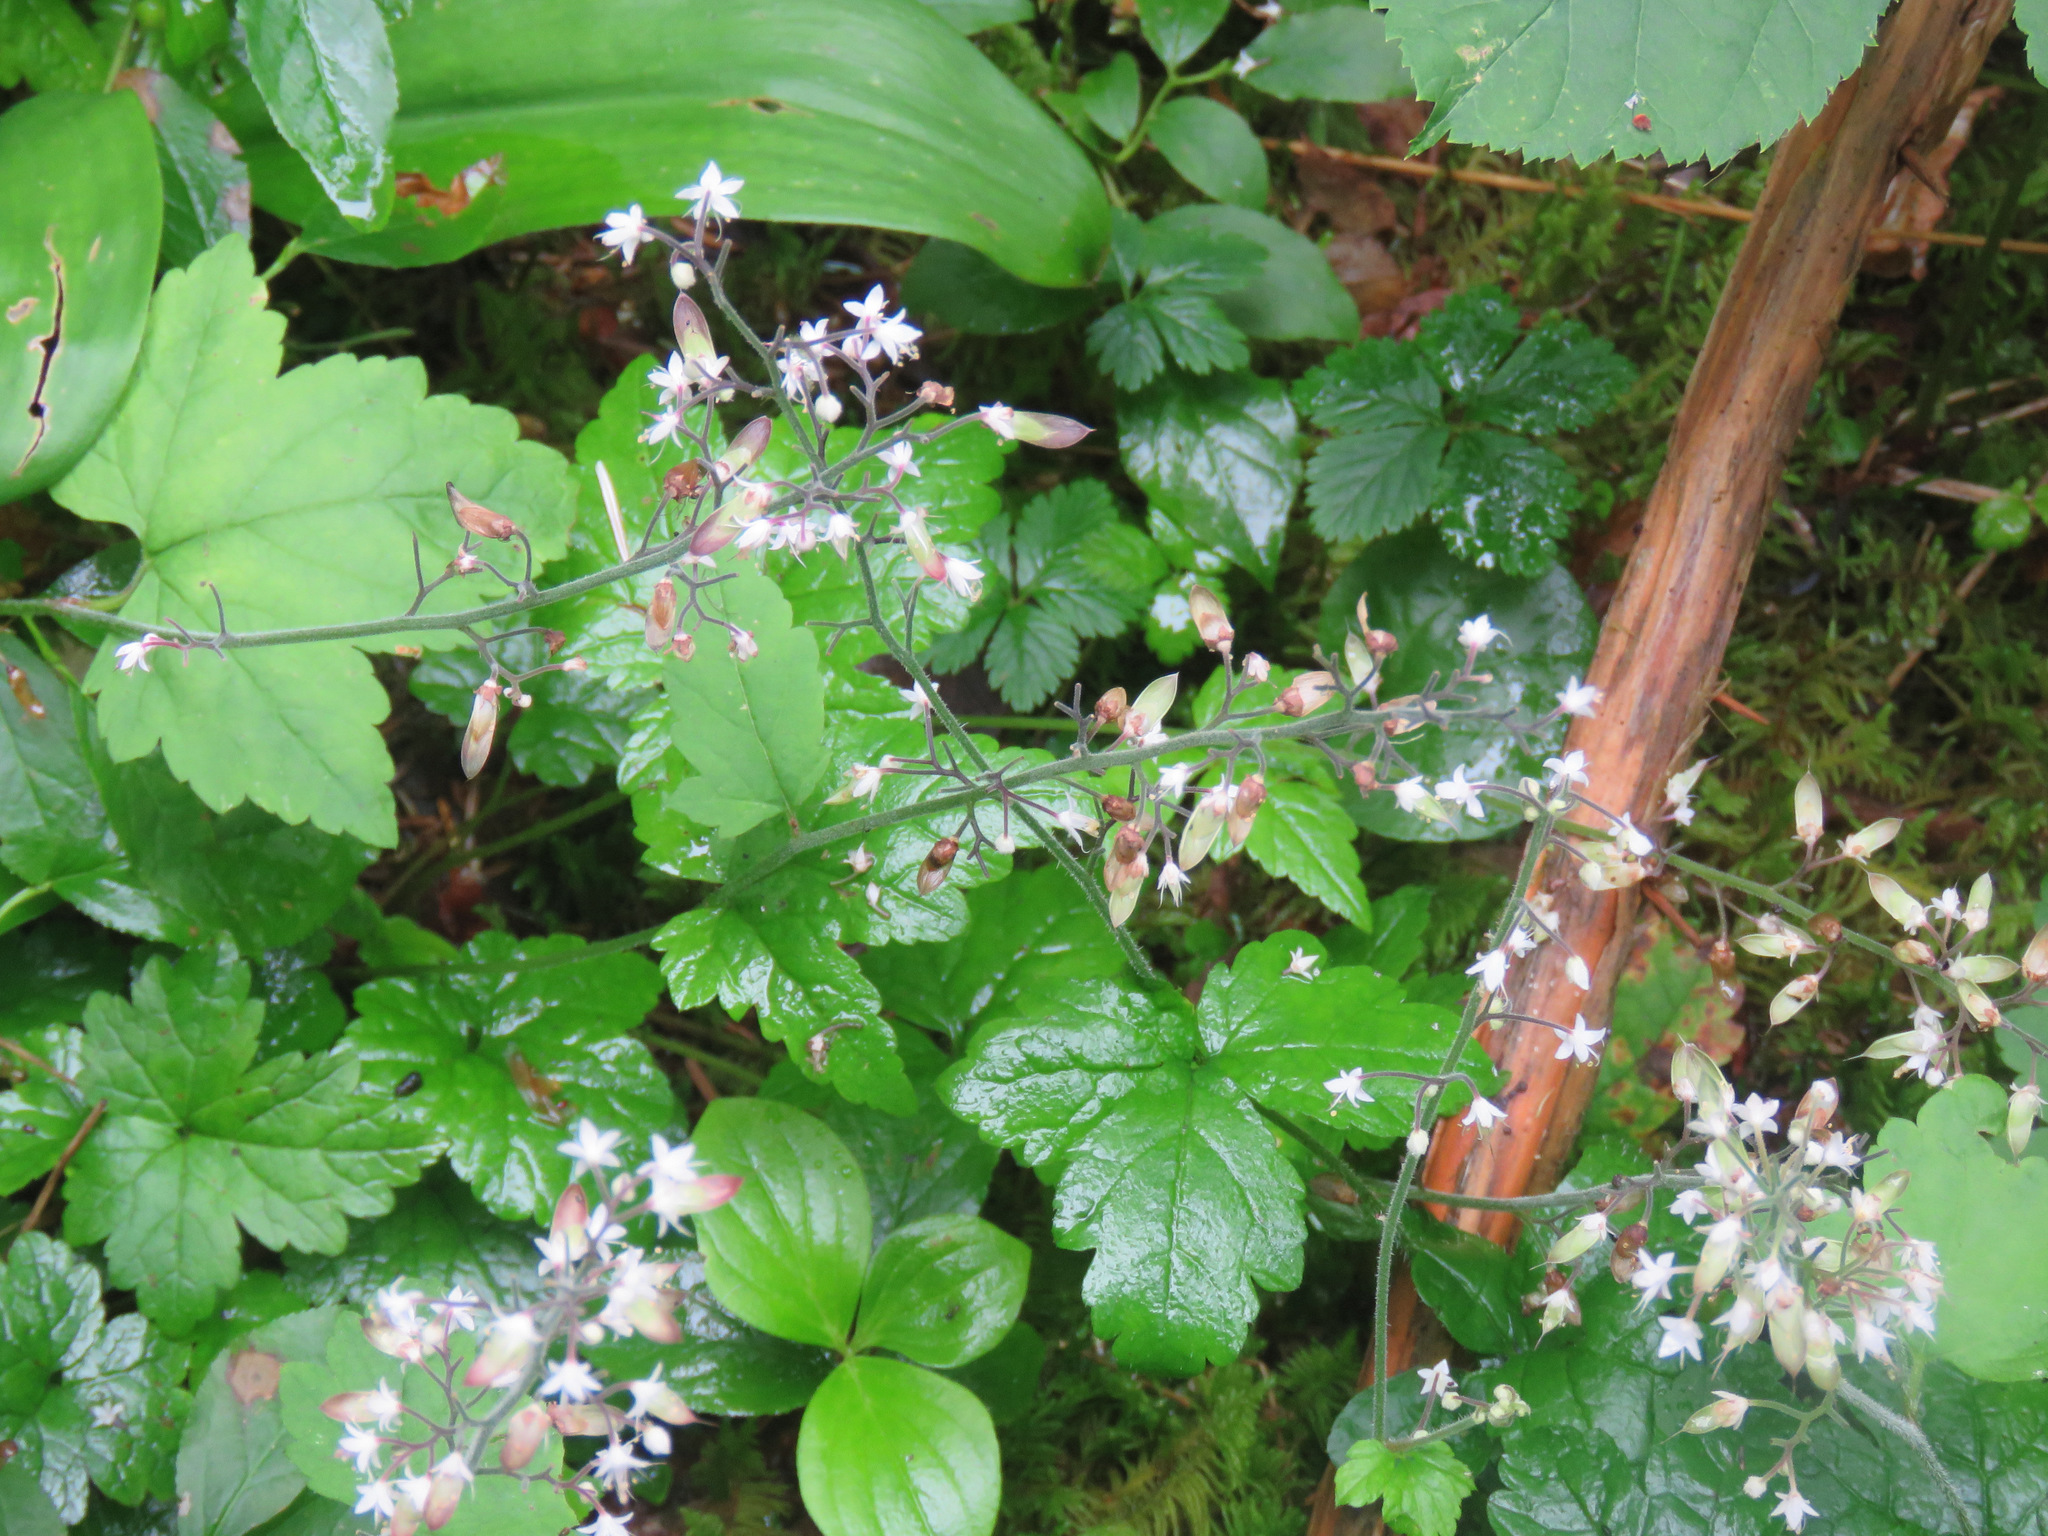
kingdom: Plantae
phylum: Tracheophyta
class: Magnoliopsida
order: Saxifragales
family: Saxifragaceae
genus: Tiarella
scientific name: Tiarella trifoliata
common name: Sugar-scoop
